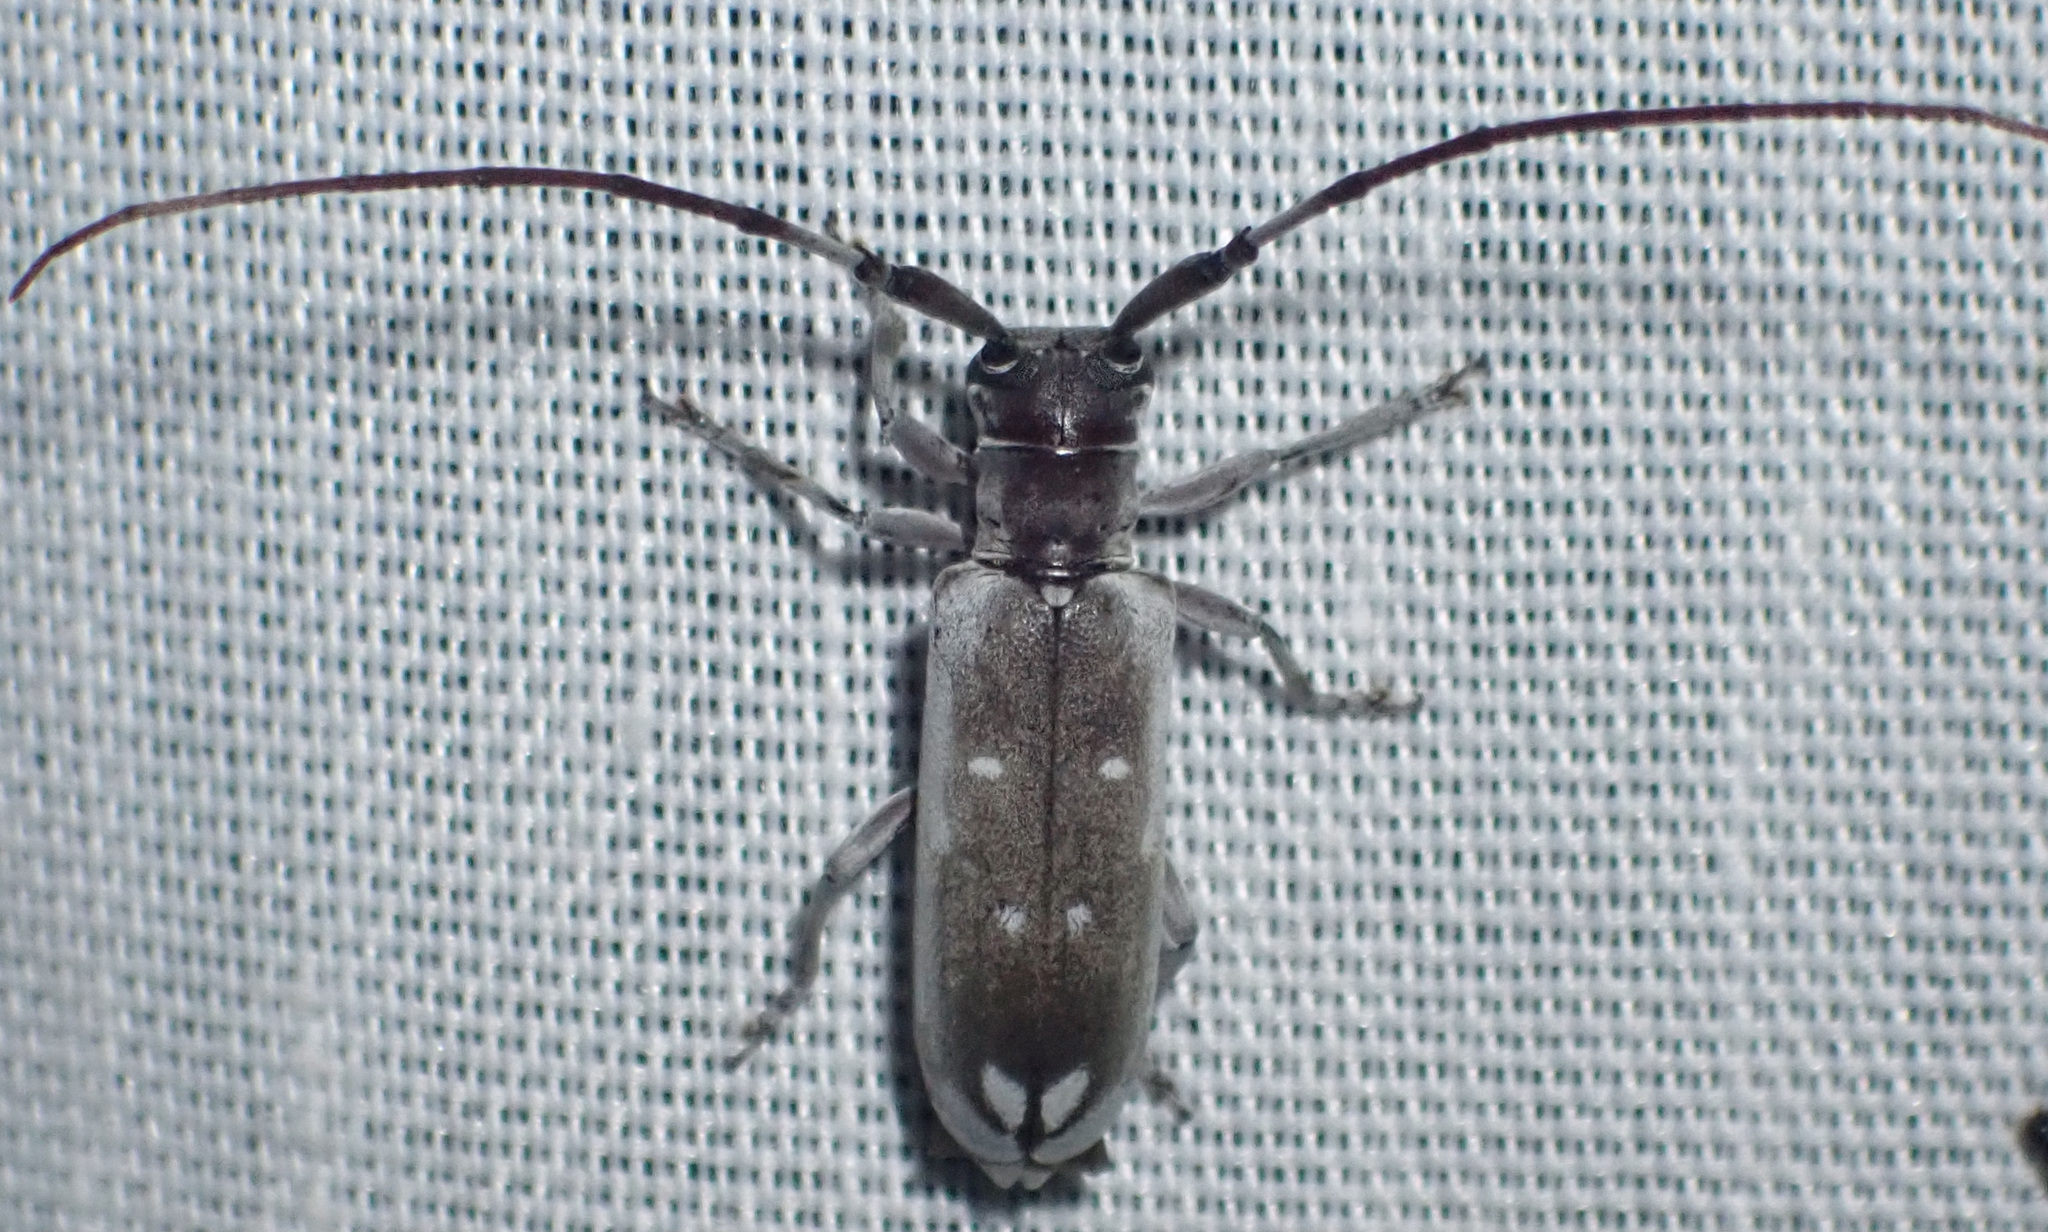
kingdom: Animalia
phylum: Arthropoda
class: Insecta
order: Coleoptera
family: Cerambycidae
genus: Eunidia
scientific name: Eunidia thomseni
